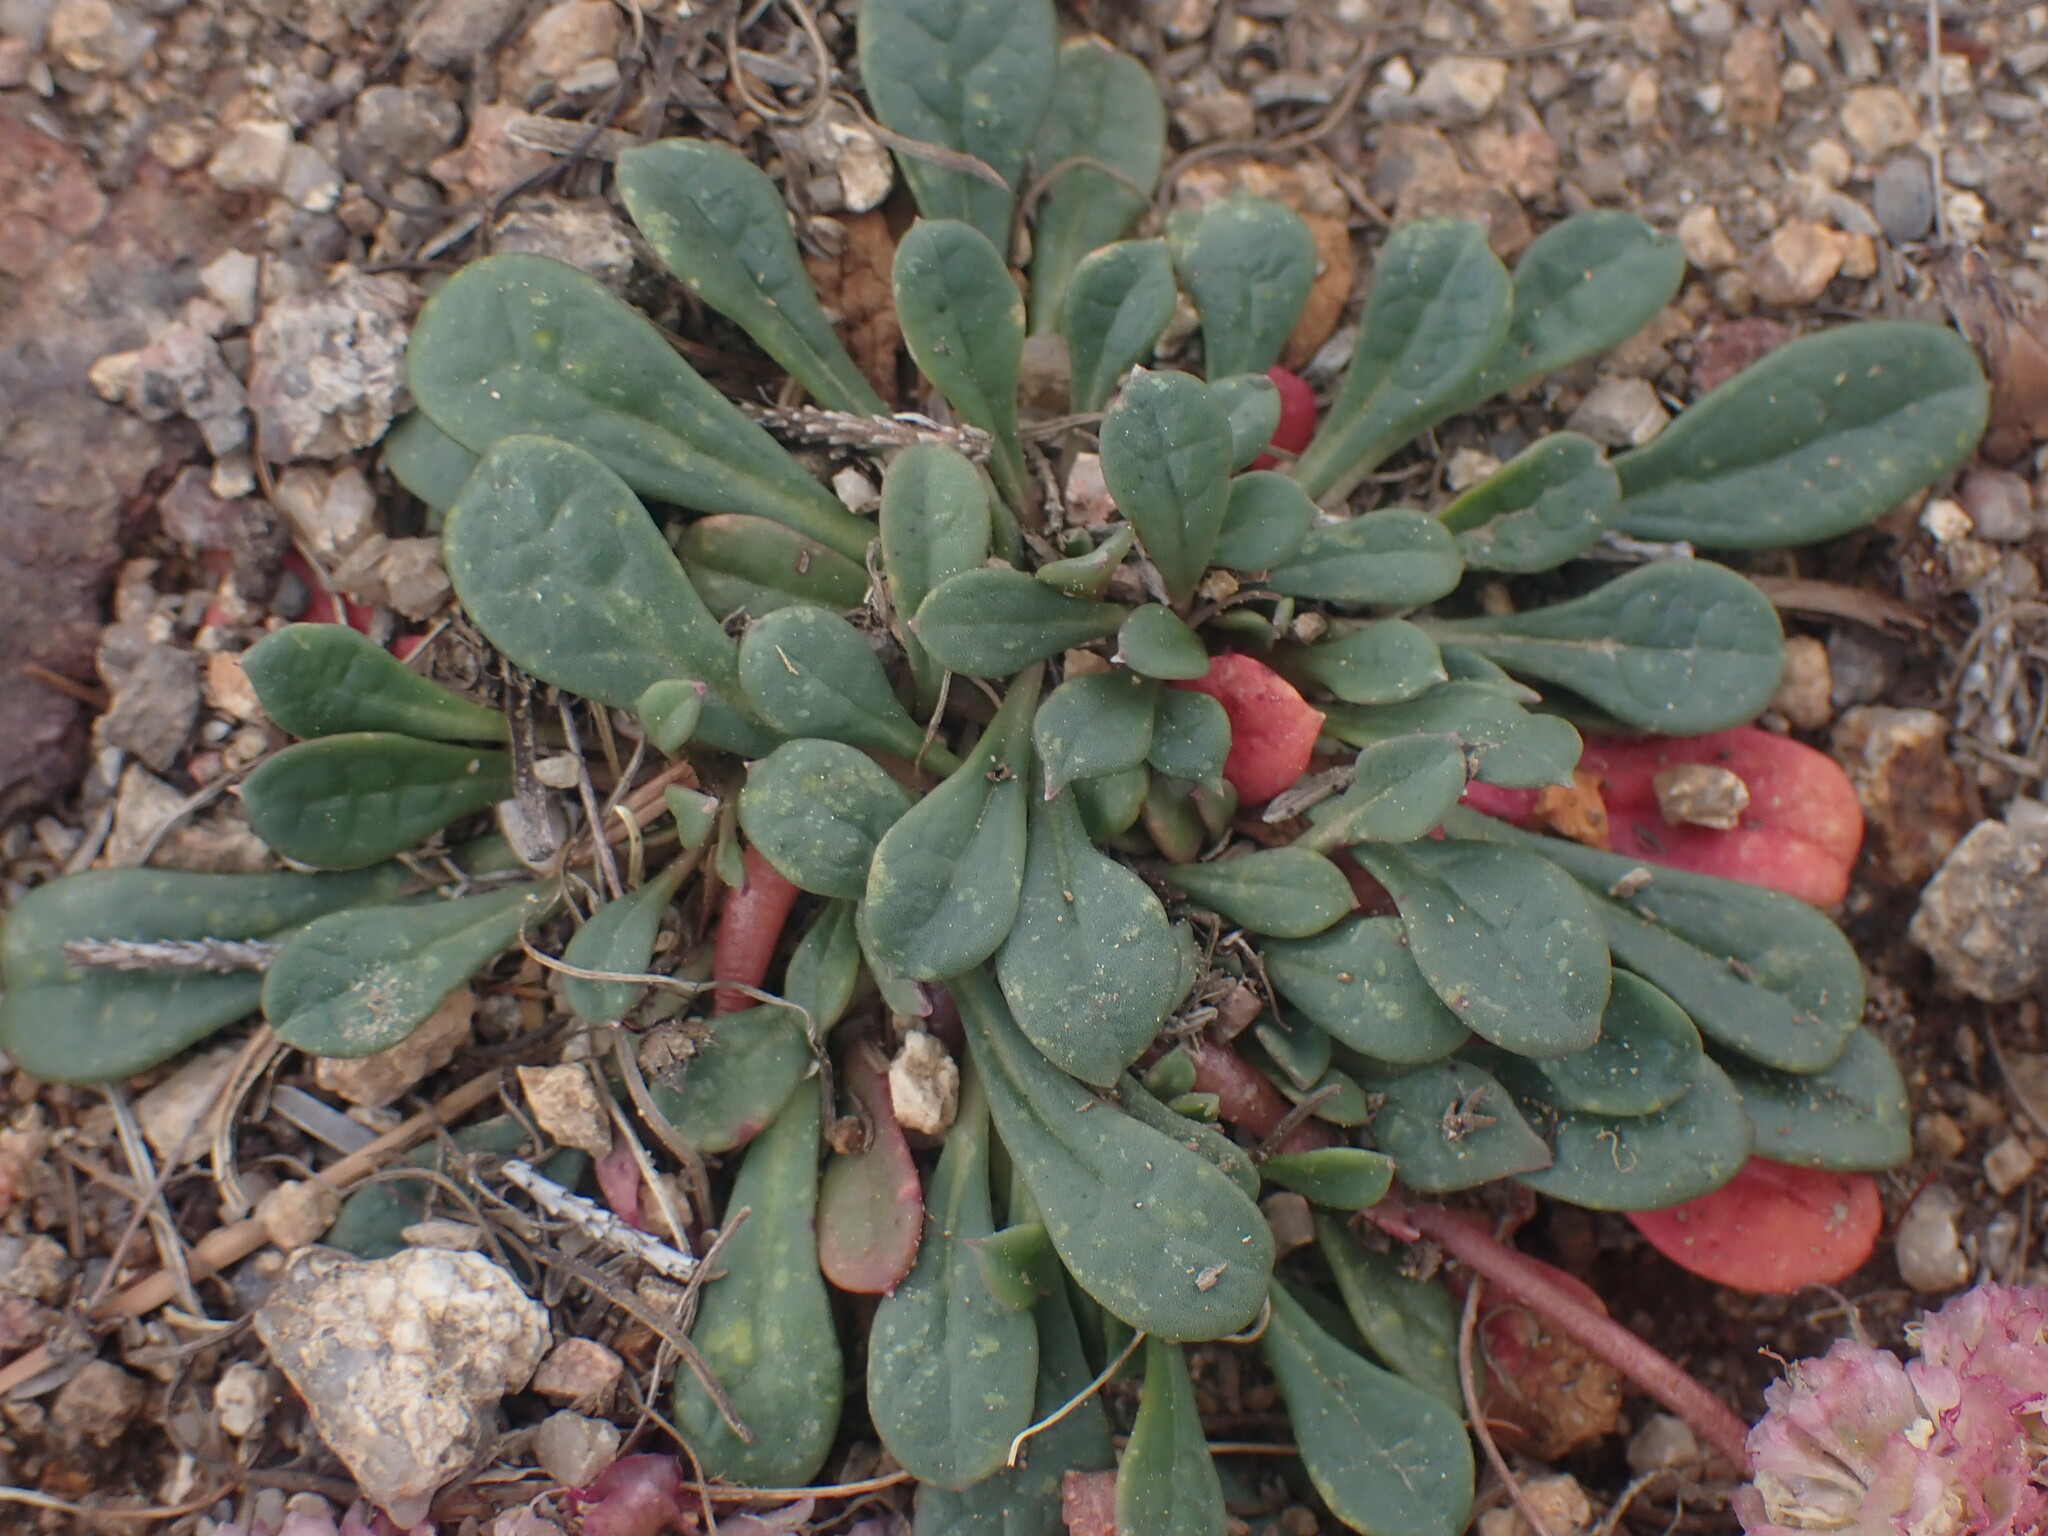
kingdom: Plantae
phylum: Tracheophyta
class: Magnoliopsida
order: Caryophyllales
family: Montiaceae
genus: Calyptridium
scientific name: Calyptridium umbellatum
